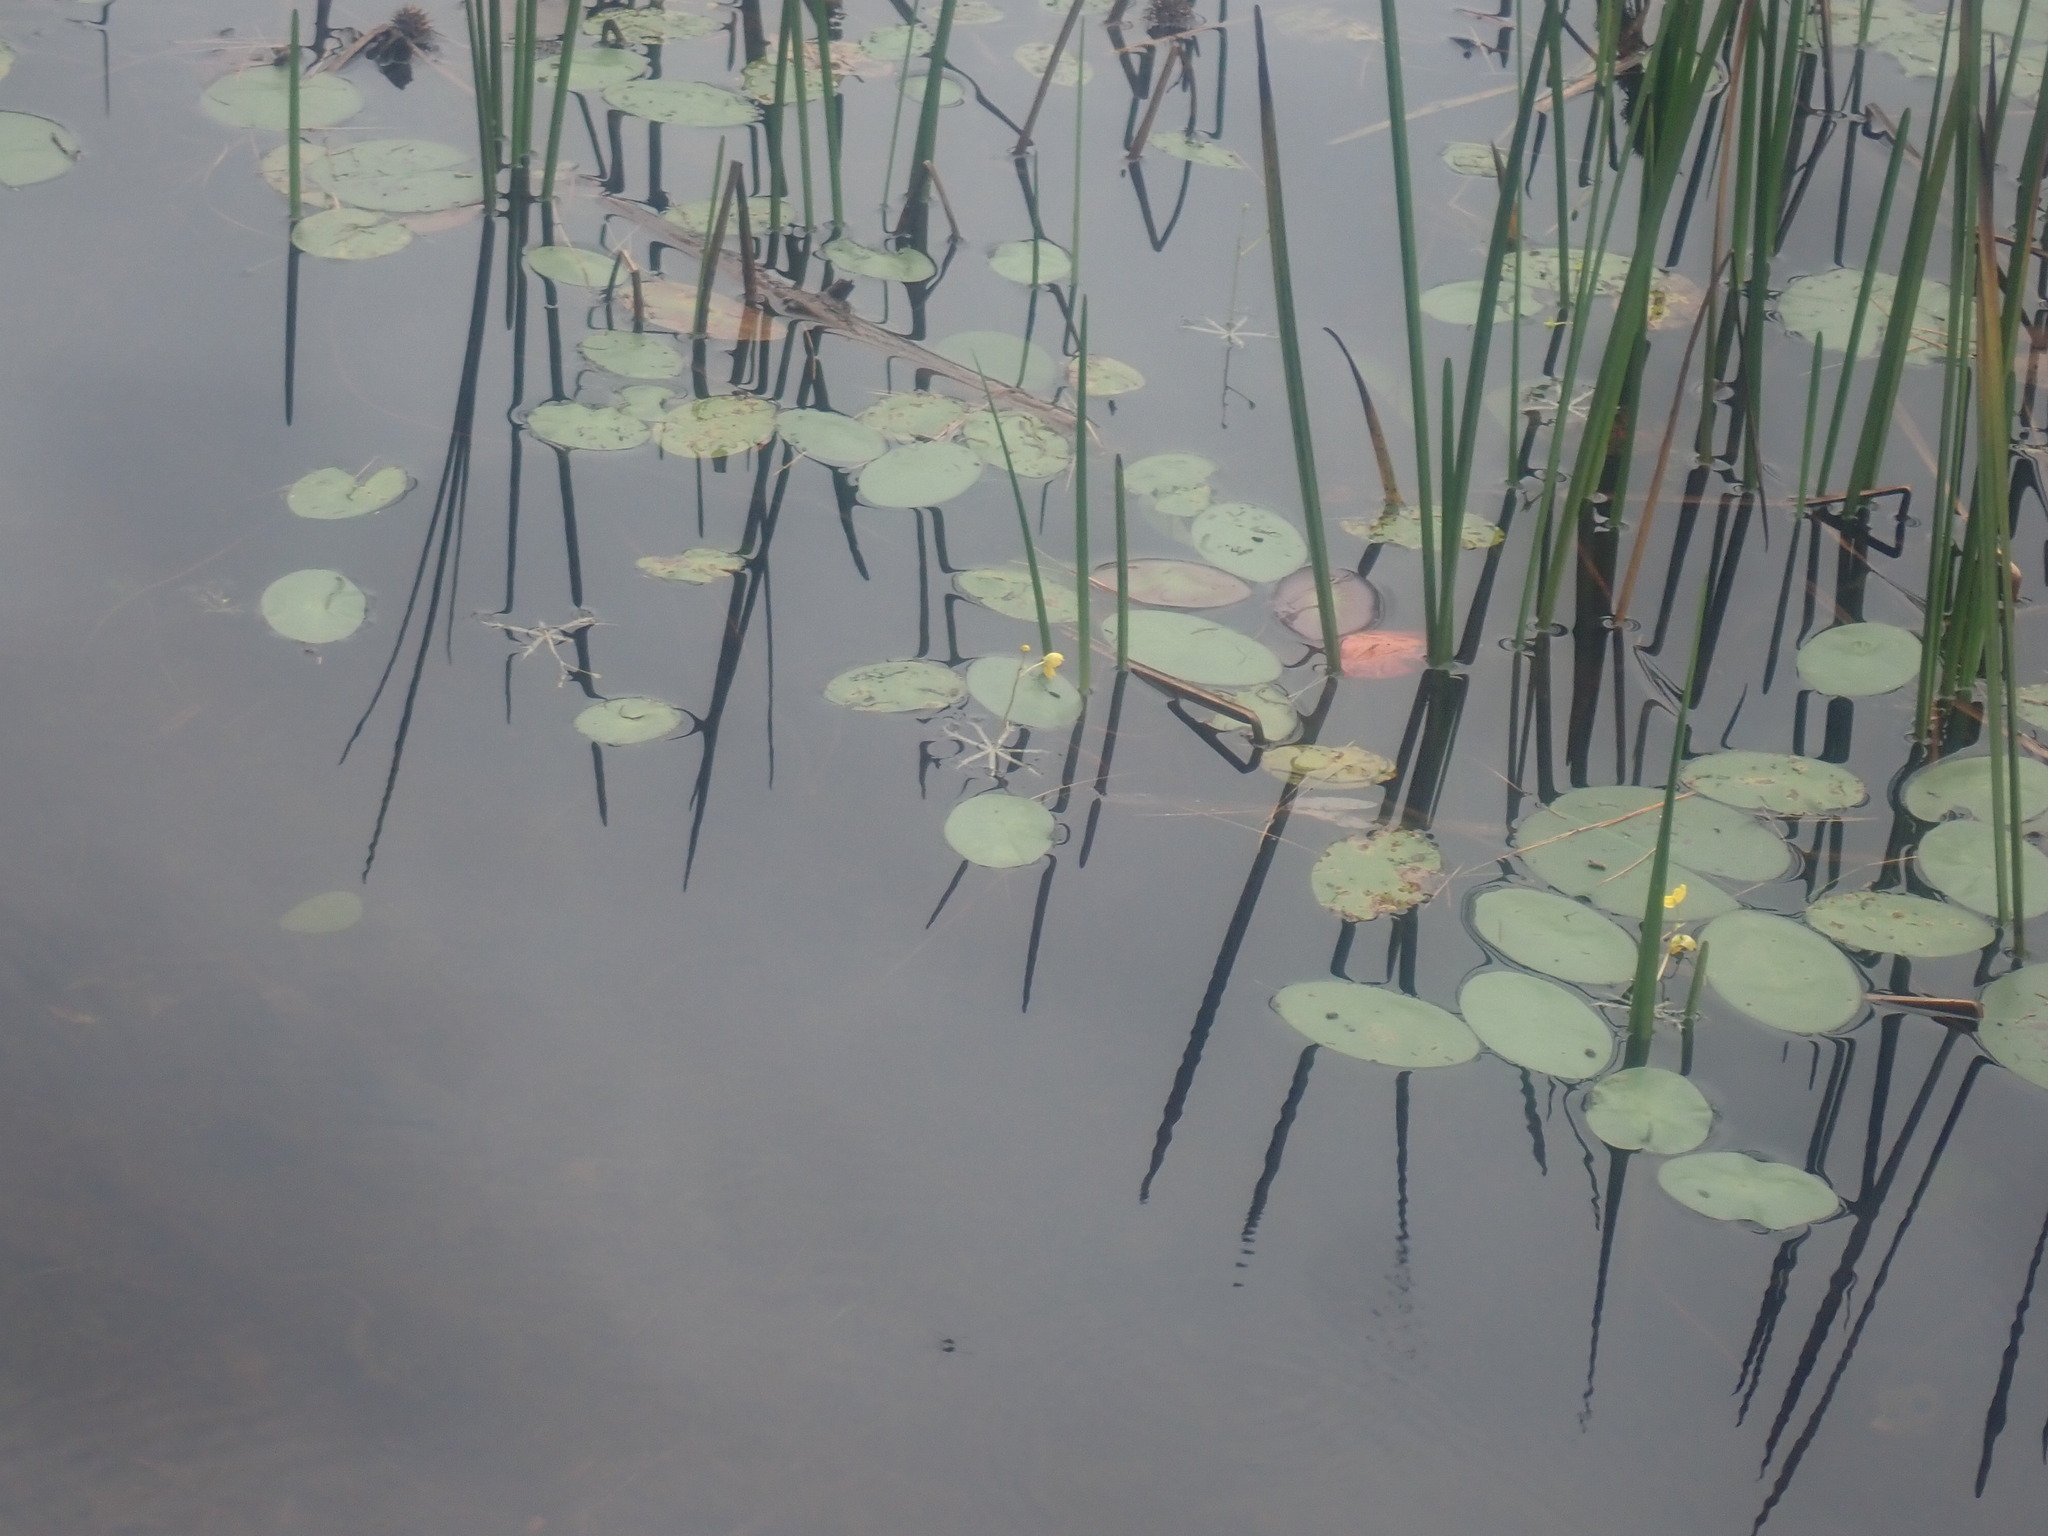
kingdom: Plantae
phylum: Tracheophyta
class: Magnoliopsida
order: Nymphaeales
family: Cabombaceae
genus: Brasenia
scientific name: Brasenia schreberi
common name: Water-shield
